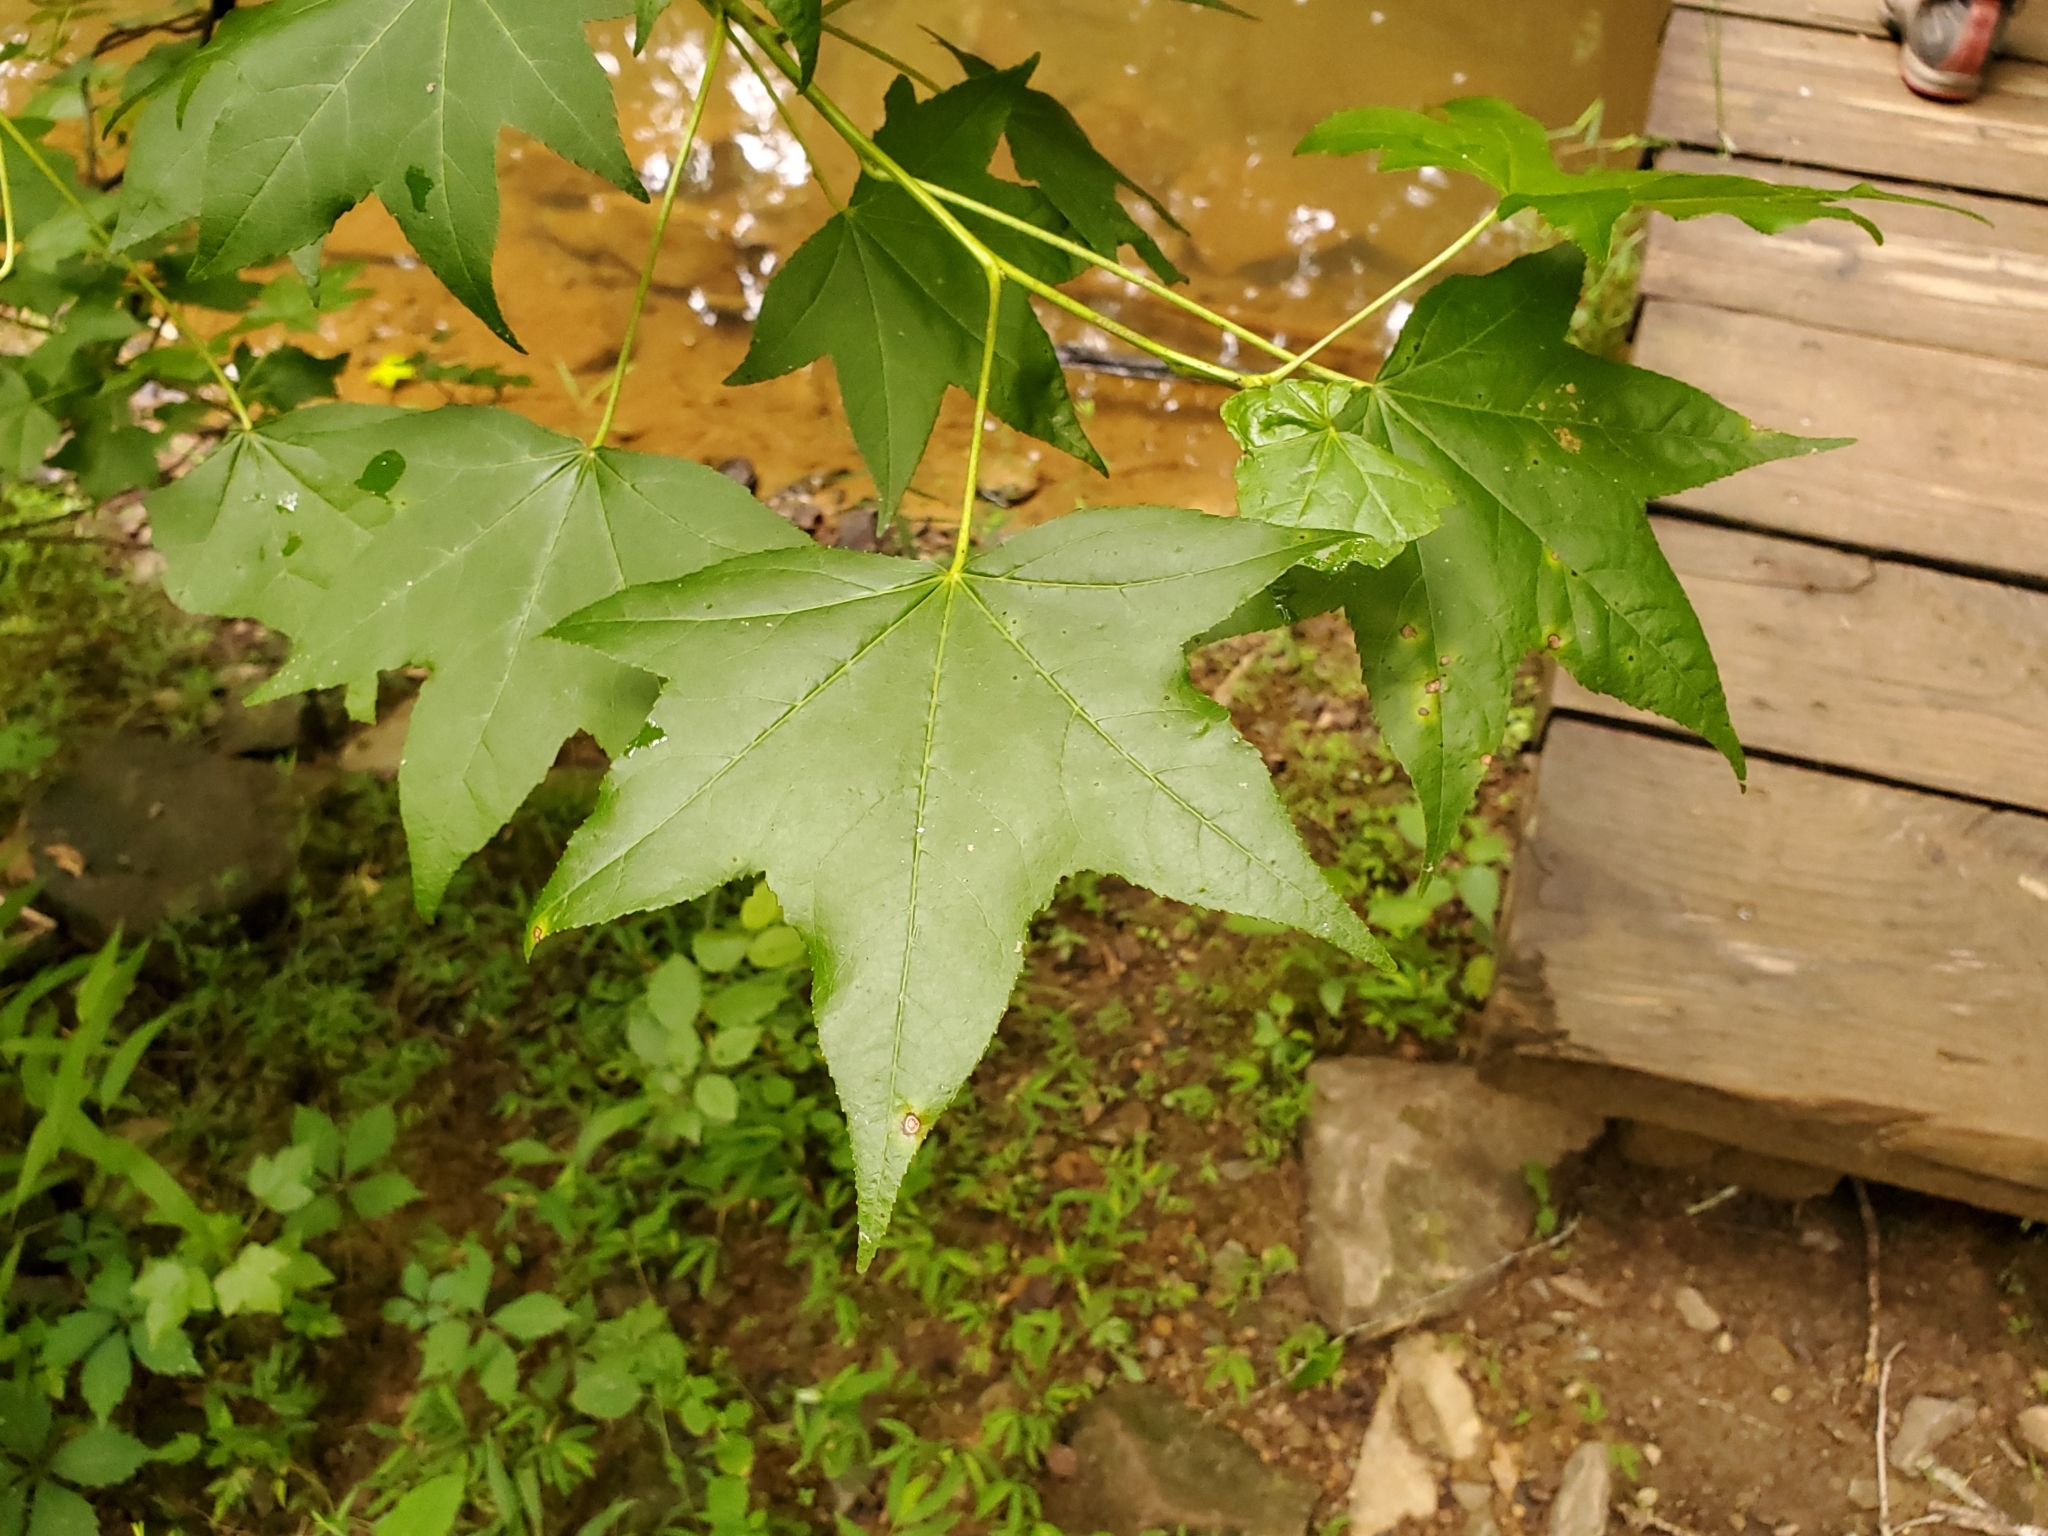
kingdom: Plantae
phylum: Tracheophyta
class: Magnoliopsida
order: Saxifragales
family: Altingiaceae
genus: Liquidambar
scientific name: Liquidambar styraciflua
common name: Sweet gum
